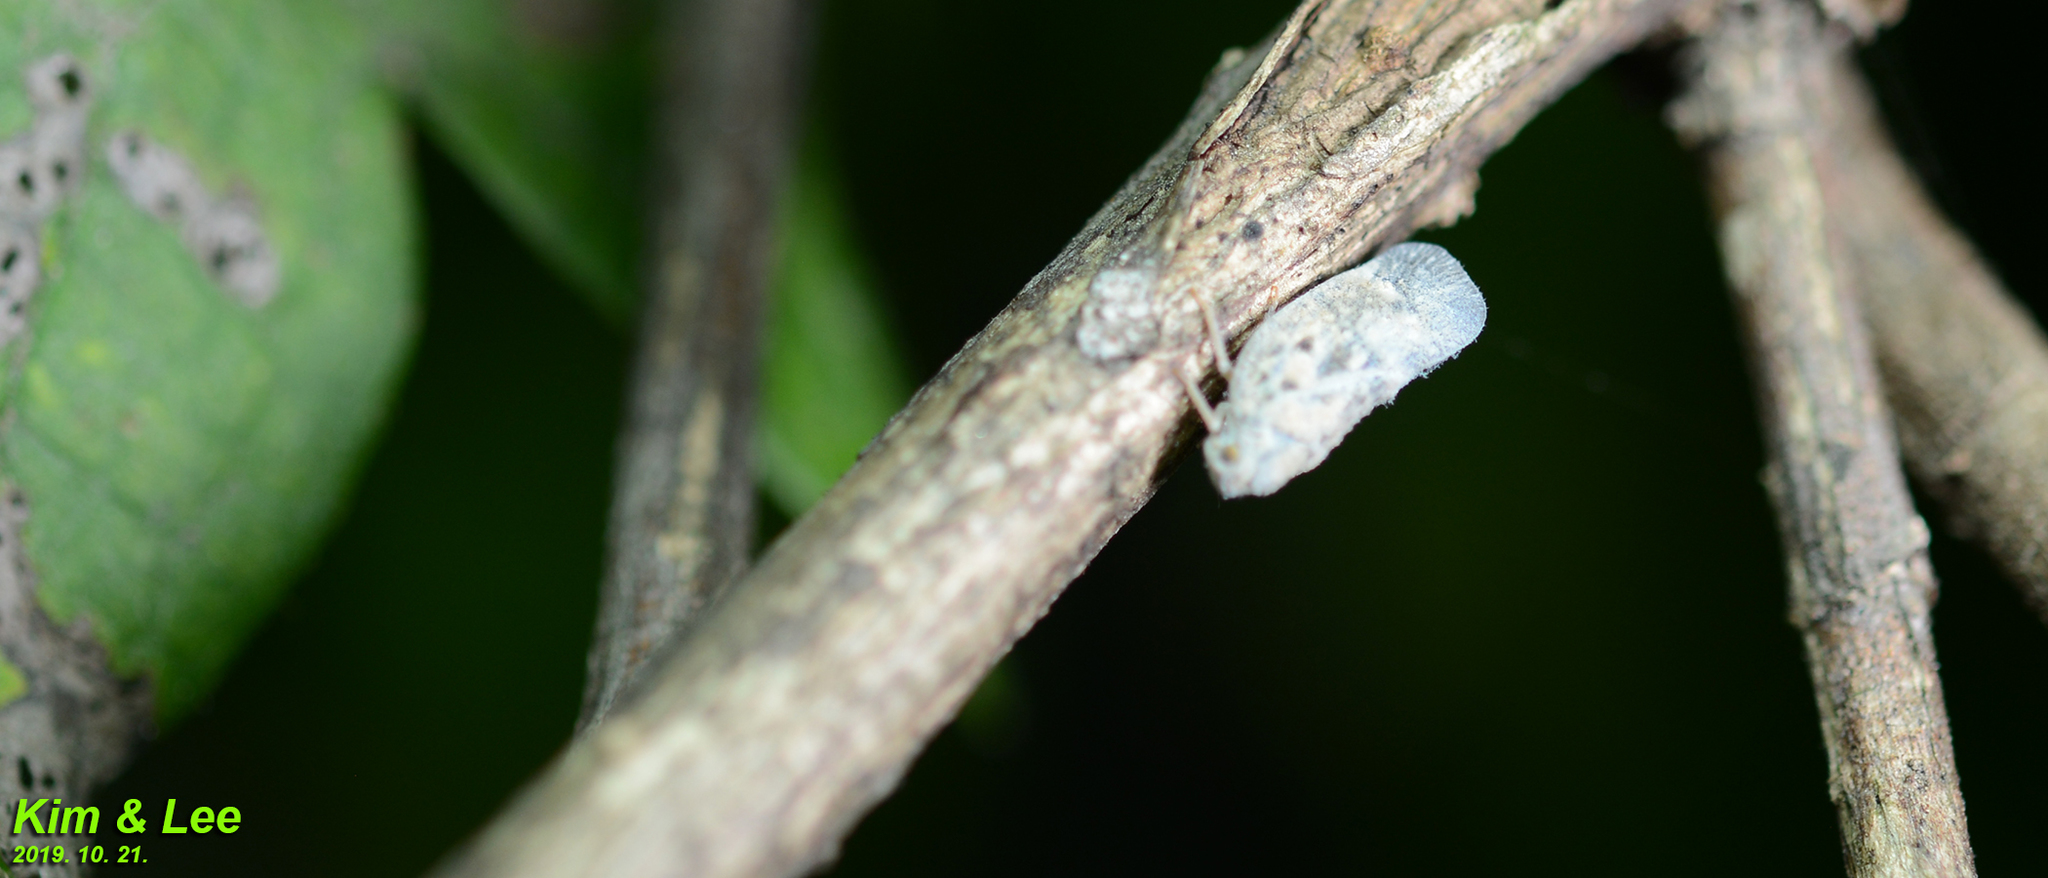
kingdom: Animalia
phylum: Arthropoda
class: Insecta
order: Hemiptera
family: Flatidae
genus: Metcalfa
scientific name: Metcalfa pruinosa
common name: Citrus flatid planthopper
